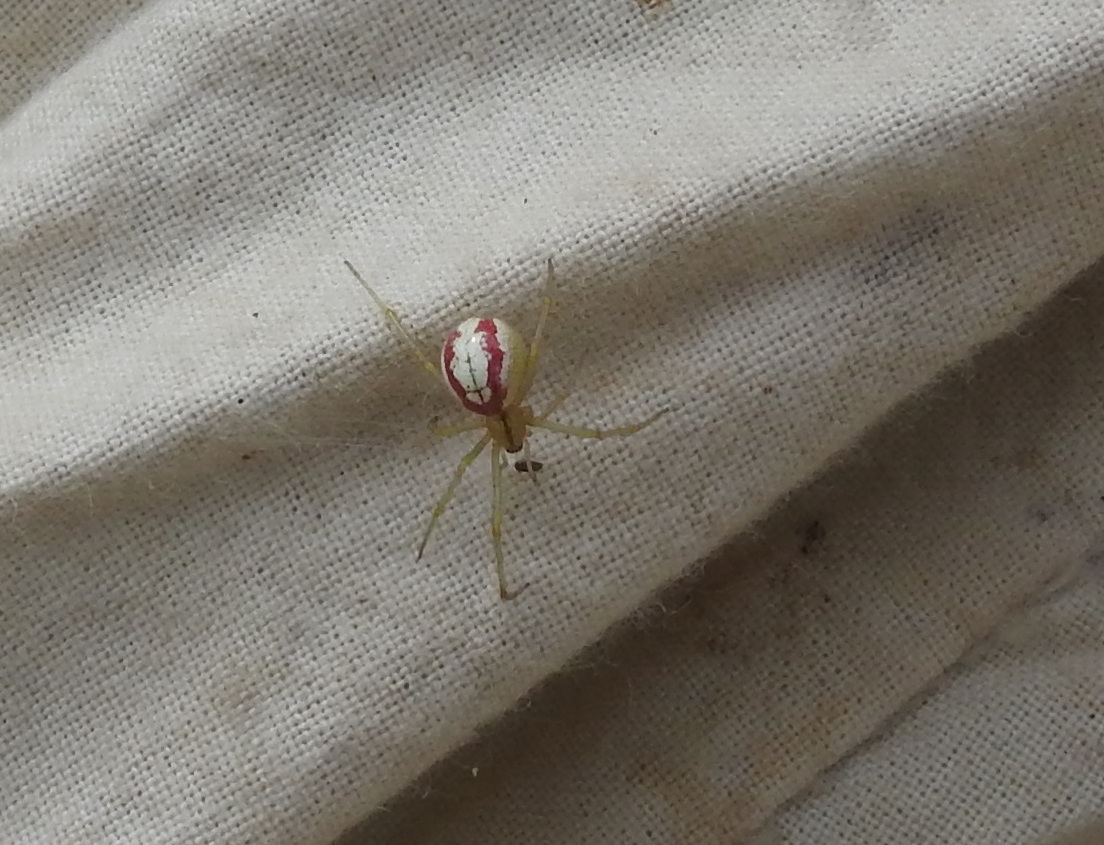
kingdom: Animalia
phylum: Arthropoda
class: Arachnida
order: Araneae
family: Theridiidae
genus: Enoplognatha
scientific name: Enoplognatha
